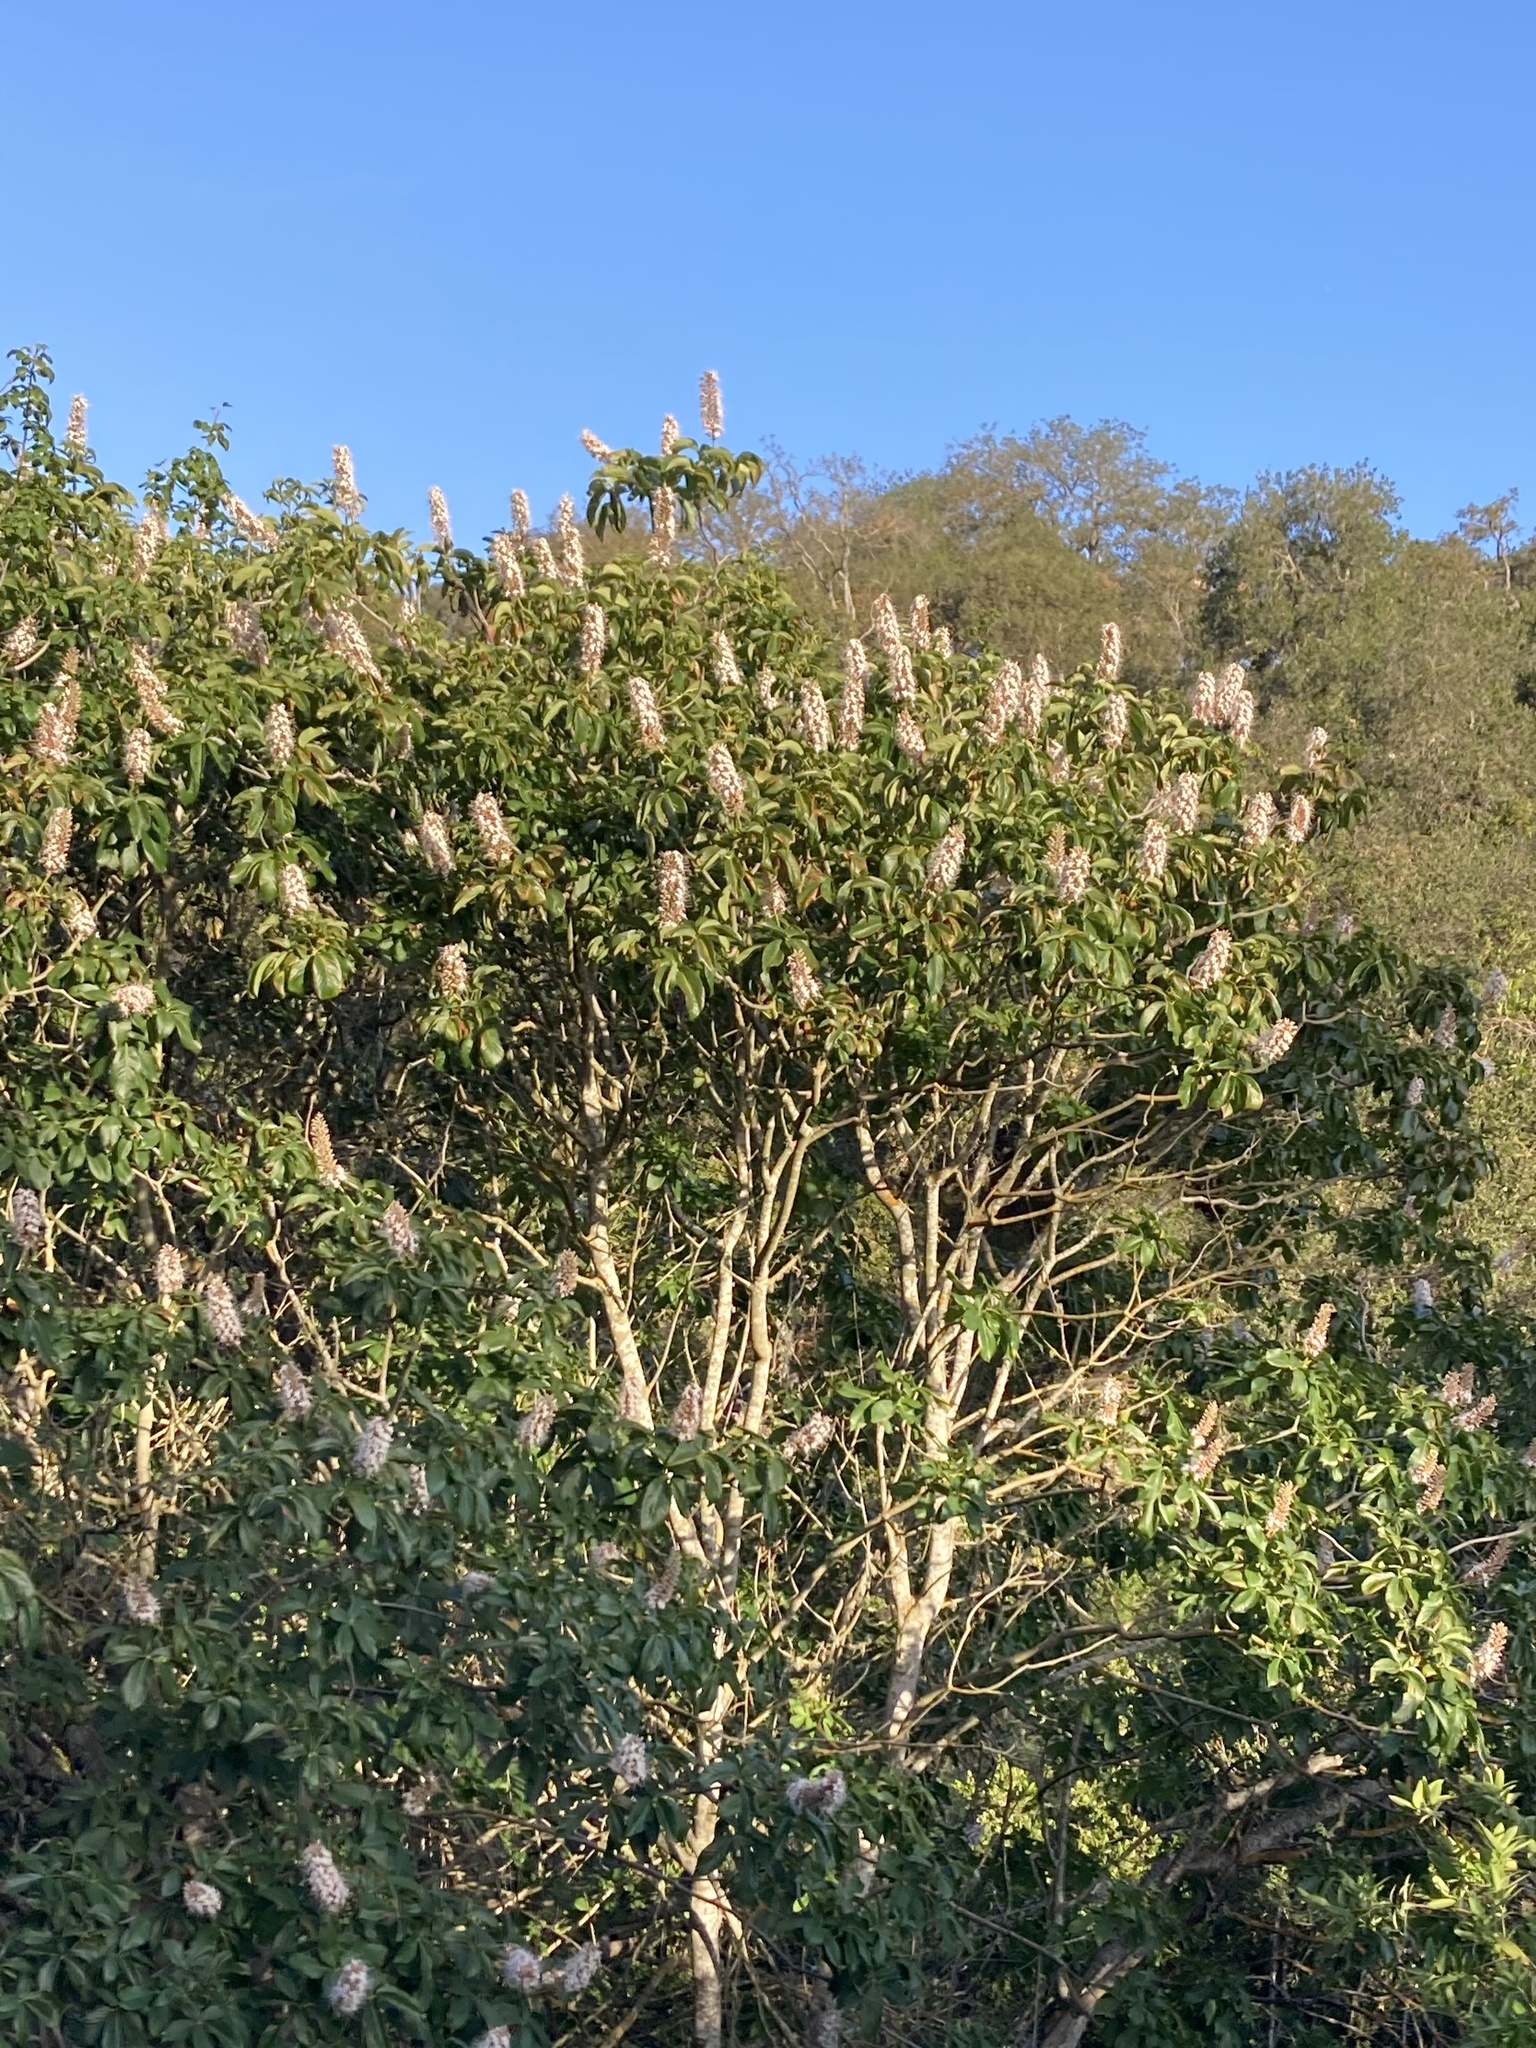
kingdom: Plantae
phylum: Tracheophyta
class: Magnoliopsida
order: Sapindales
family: Sapindaceae
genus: Aesculus
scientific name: Aesculus californica
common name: California buckeye
